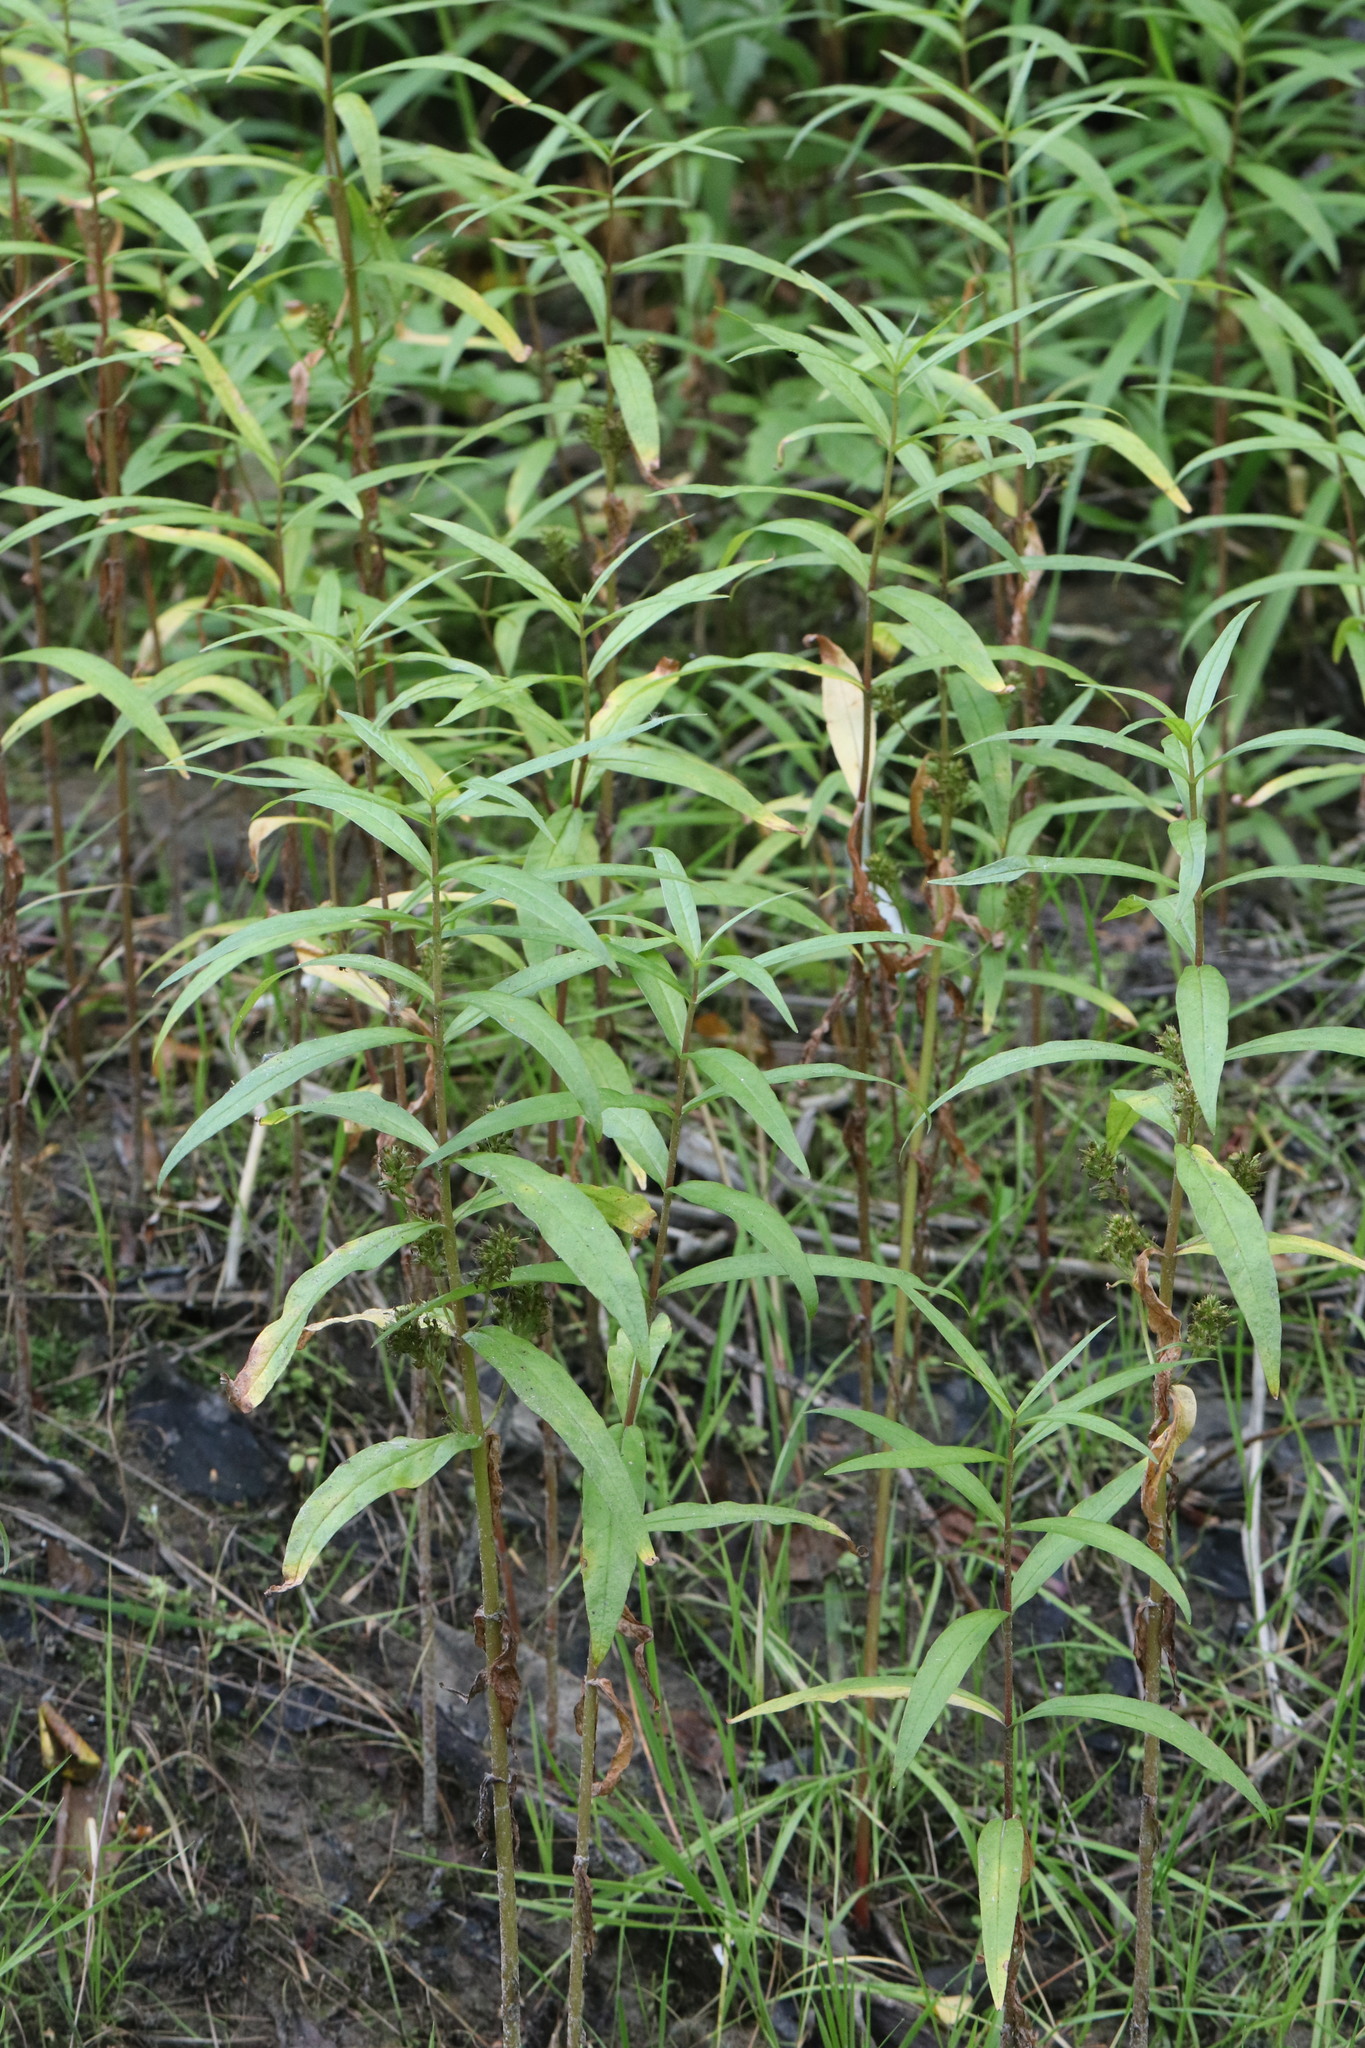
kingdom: Plantae
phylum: Tracheophyta
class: Magnoliopsida
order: Ericales
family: Primulaceae
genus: Lysimachia
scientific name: Lysimachia thyrsiflora
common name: Tufted loosestrife
